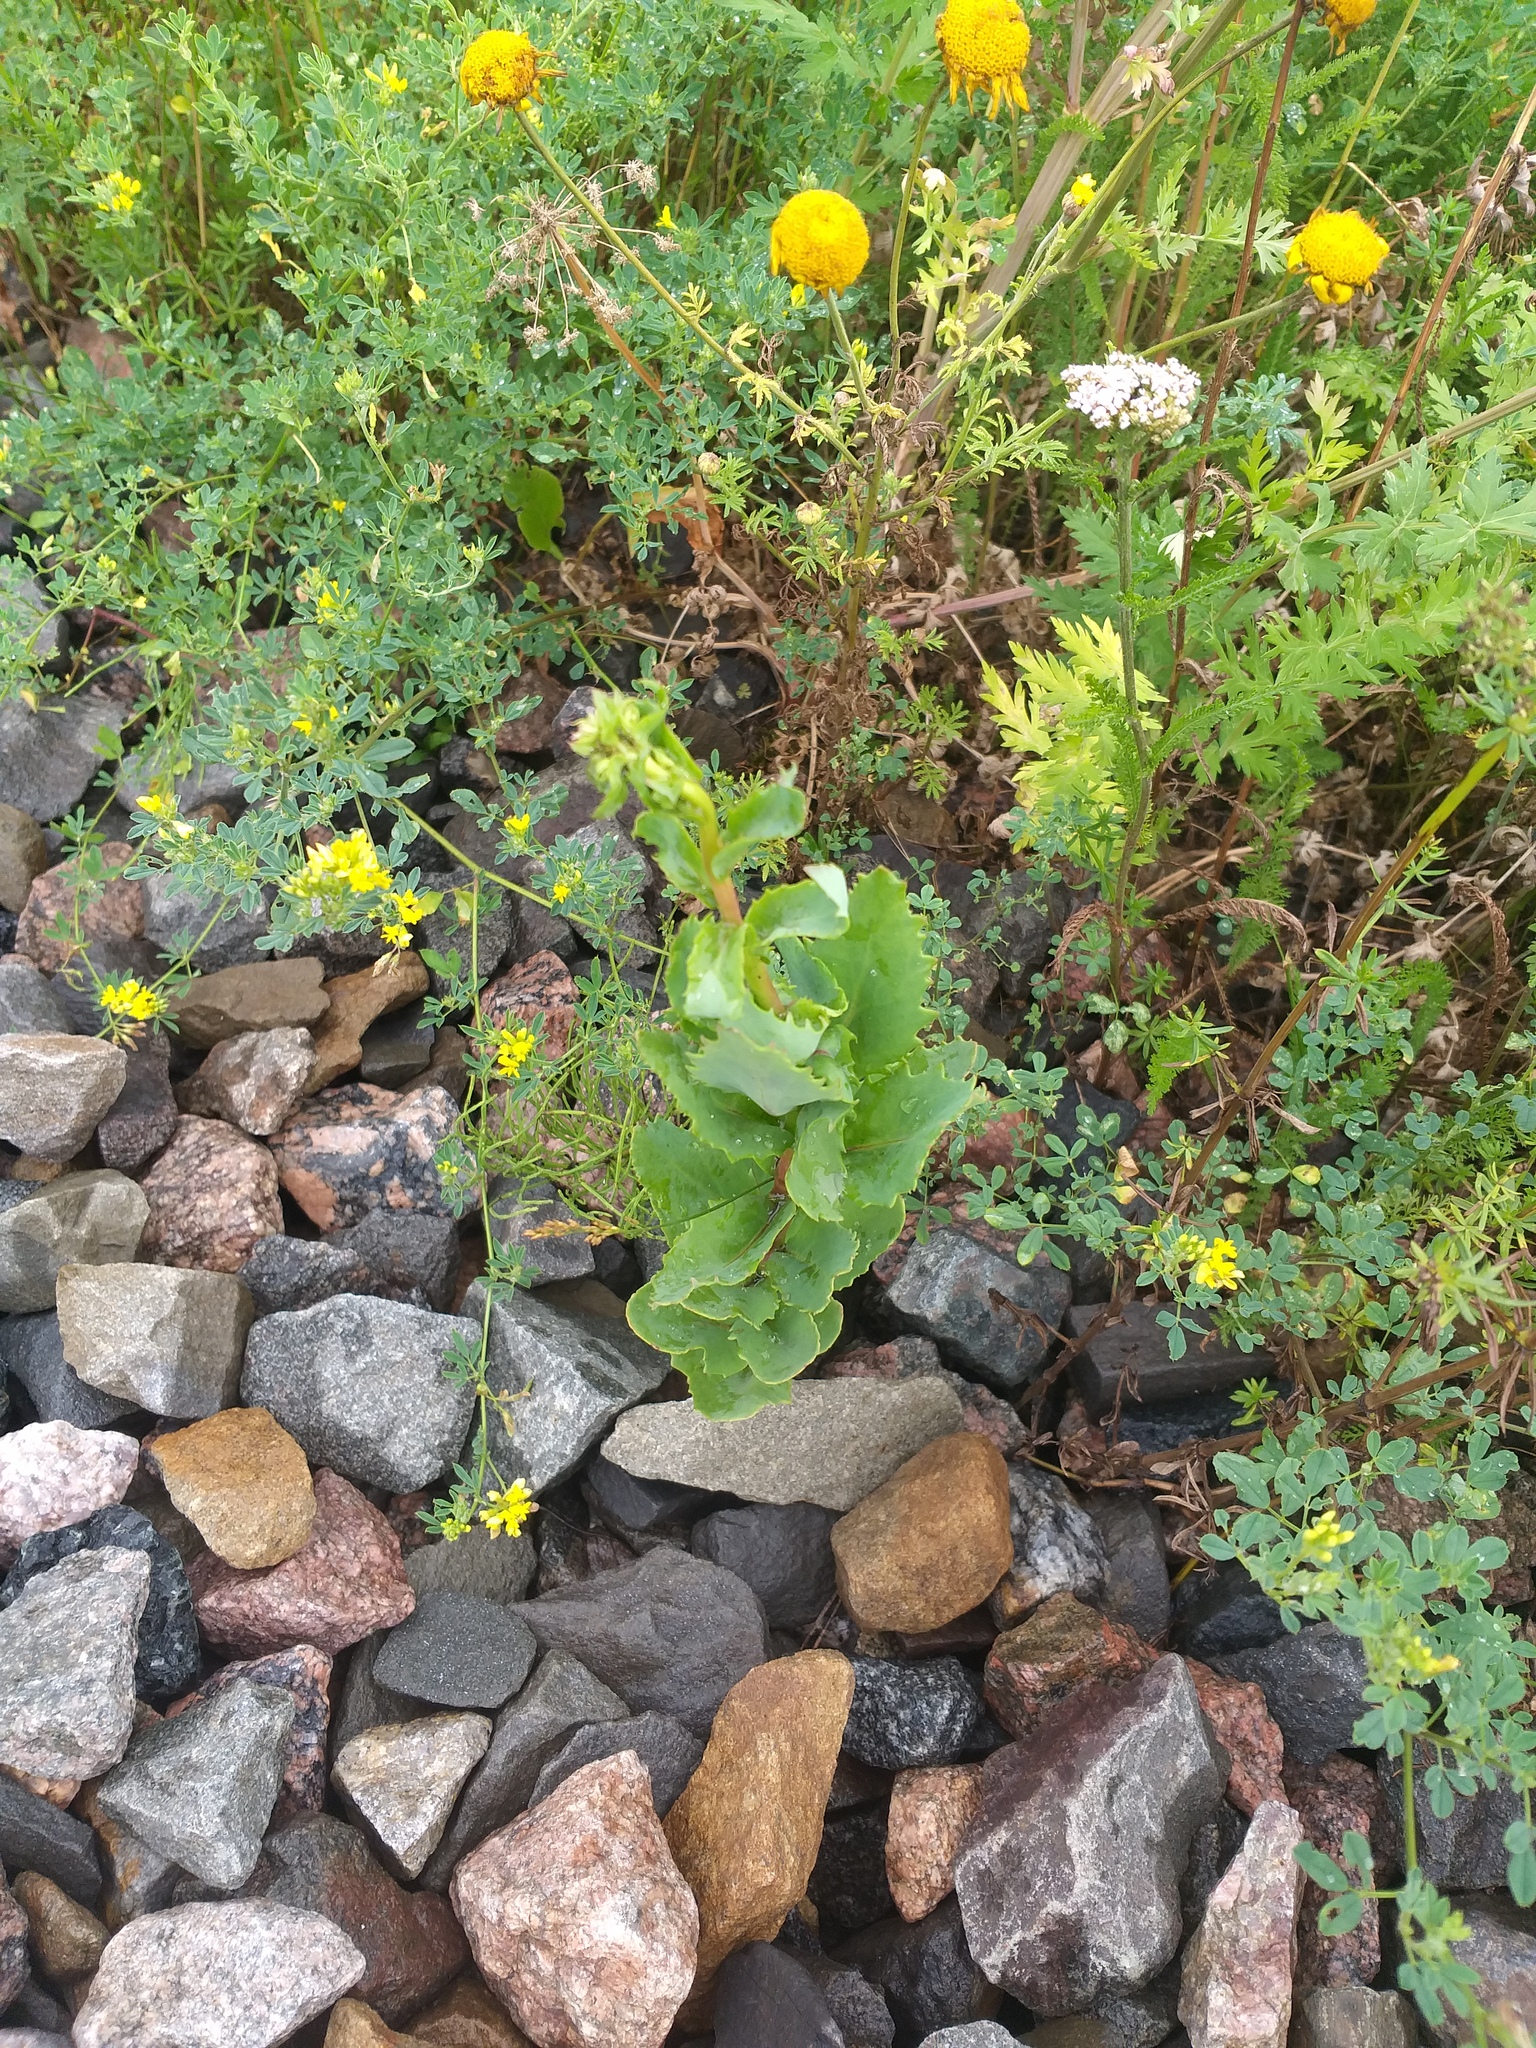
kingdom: Plantae
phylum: Tracheophyta
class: Magnoliopsida
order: Saxifragales
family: Crassulaceae
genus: Hylotelephium
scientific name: Hylotelephium telephium
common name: Live-forever
